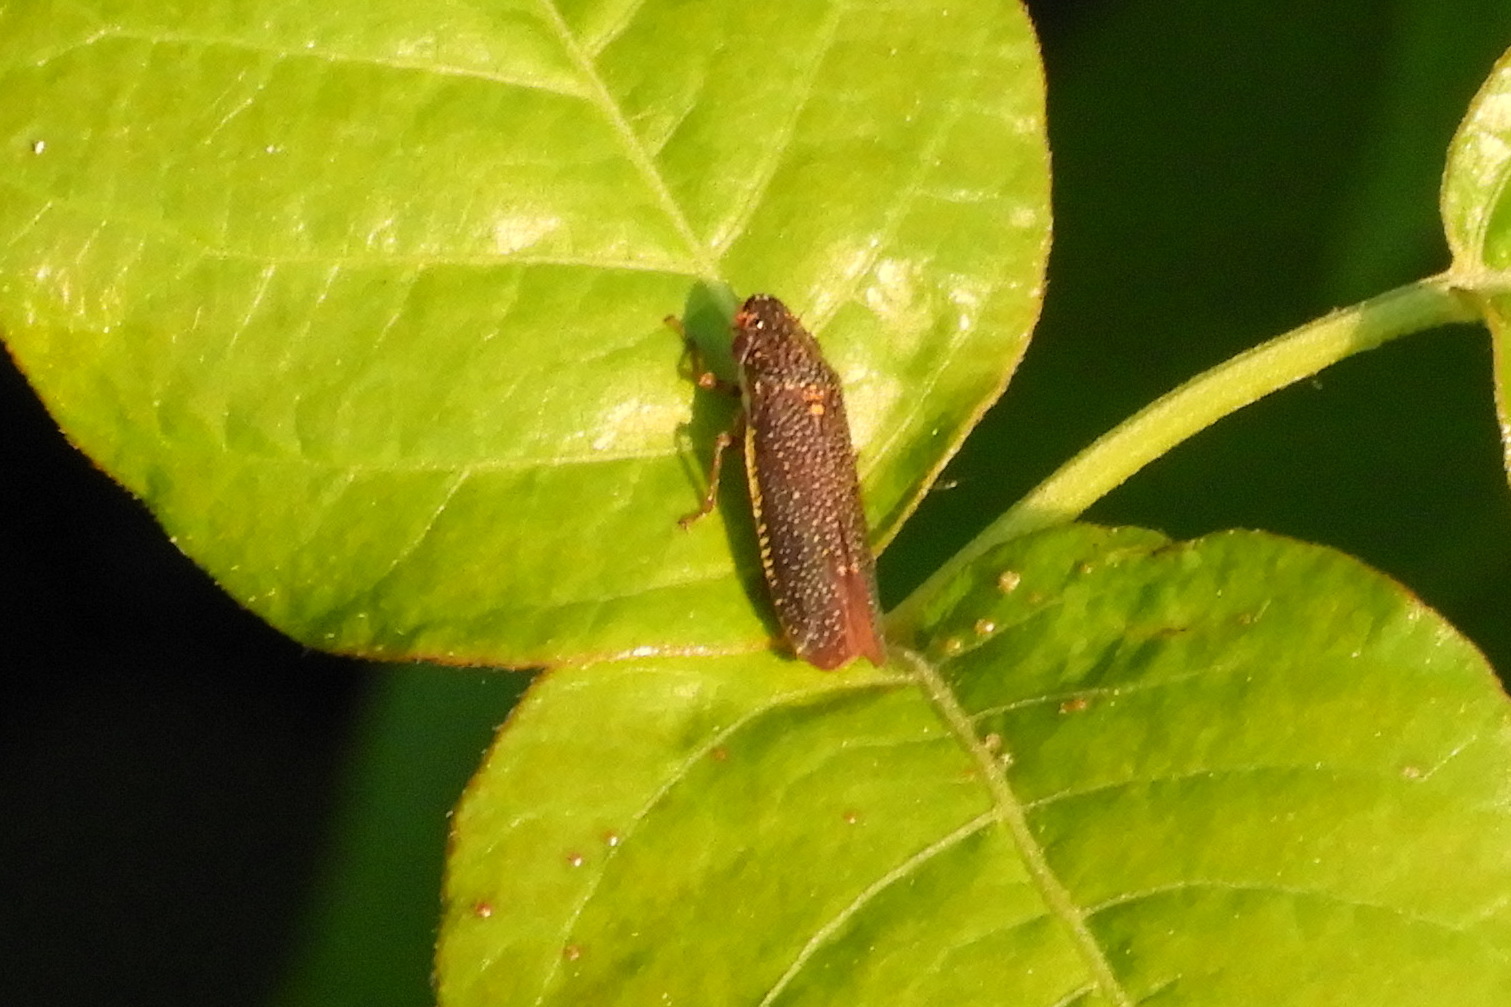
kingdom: Animalia
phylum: Arthropoda
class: Insecta
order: Hemiptera
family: Cicadellidae
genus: Paraulacizes
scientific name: Paraulacizes irrorata
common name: Speckled sharpshooter
